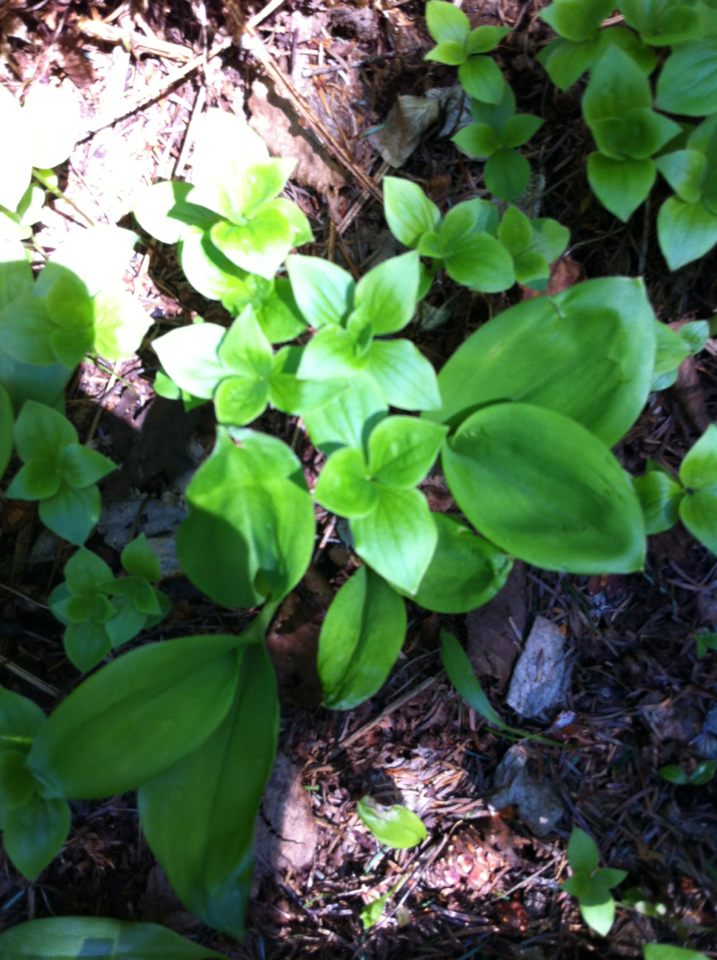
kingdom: Plantae
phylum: Tracheophyta
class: Magnoliopsida
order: Cornales
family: Cornaceae
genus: Cornus
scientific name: Cornus canadensis
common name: Creeping dogwood
